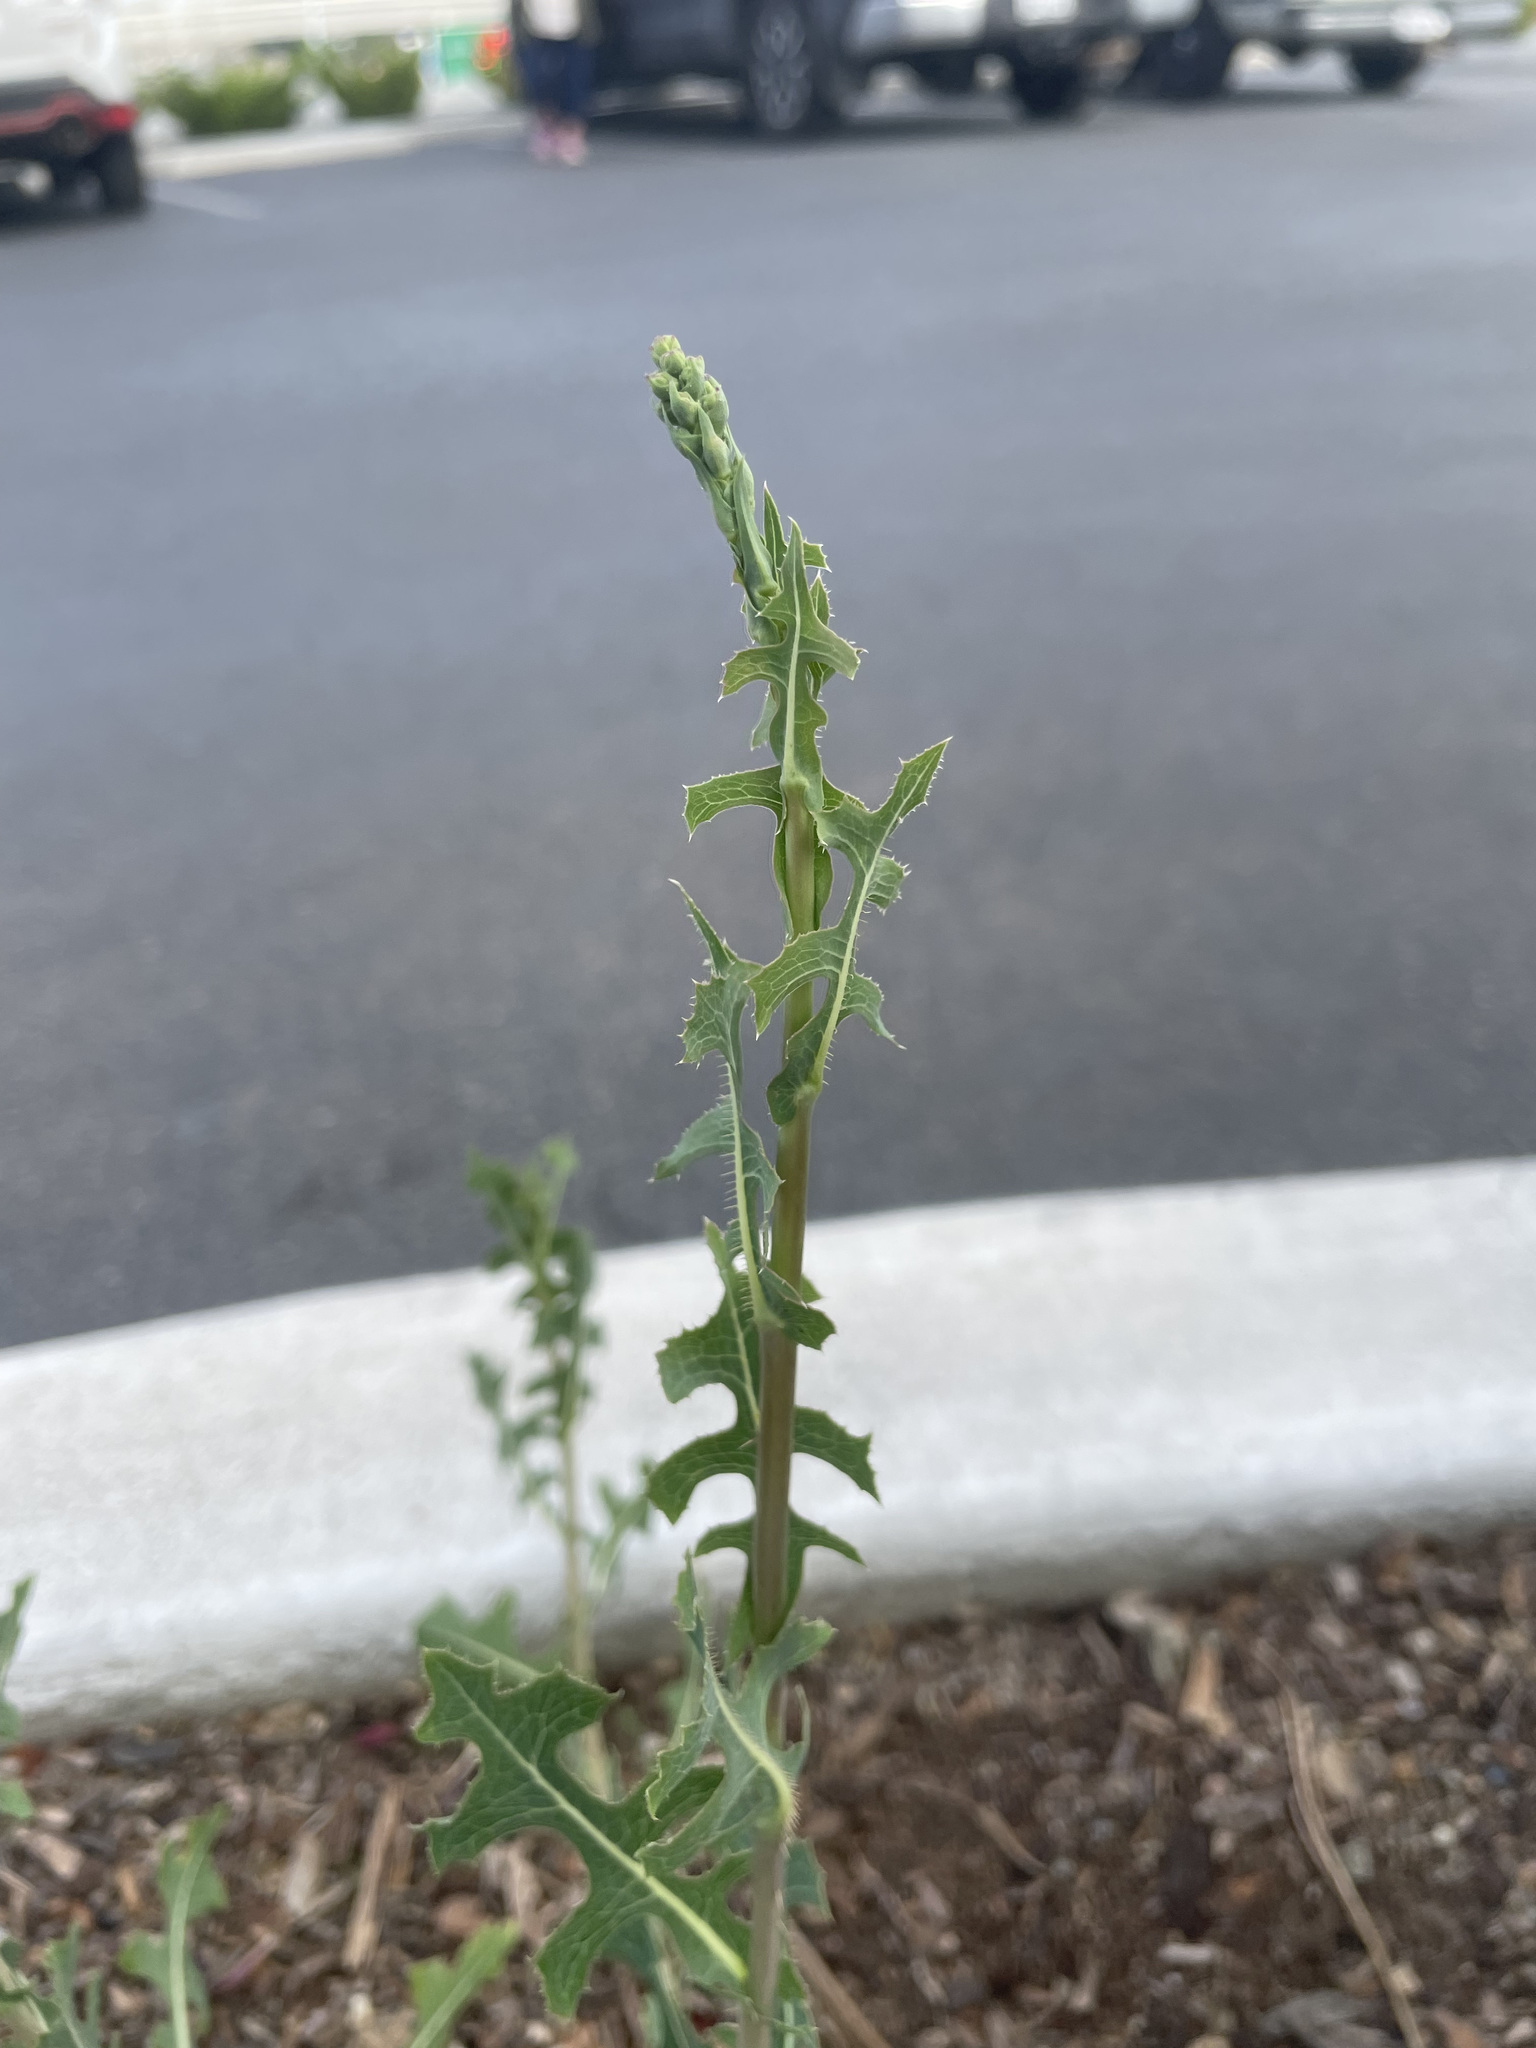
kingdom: Plantae
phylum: Tracheophyta
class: Magnoliopsida
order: Asterales
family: Asteraceae
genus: Lactuca
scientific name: Lactuca serriola
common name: Prickly lettuce
